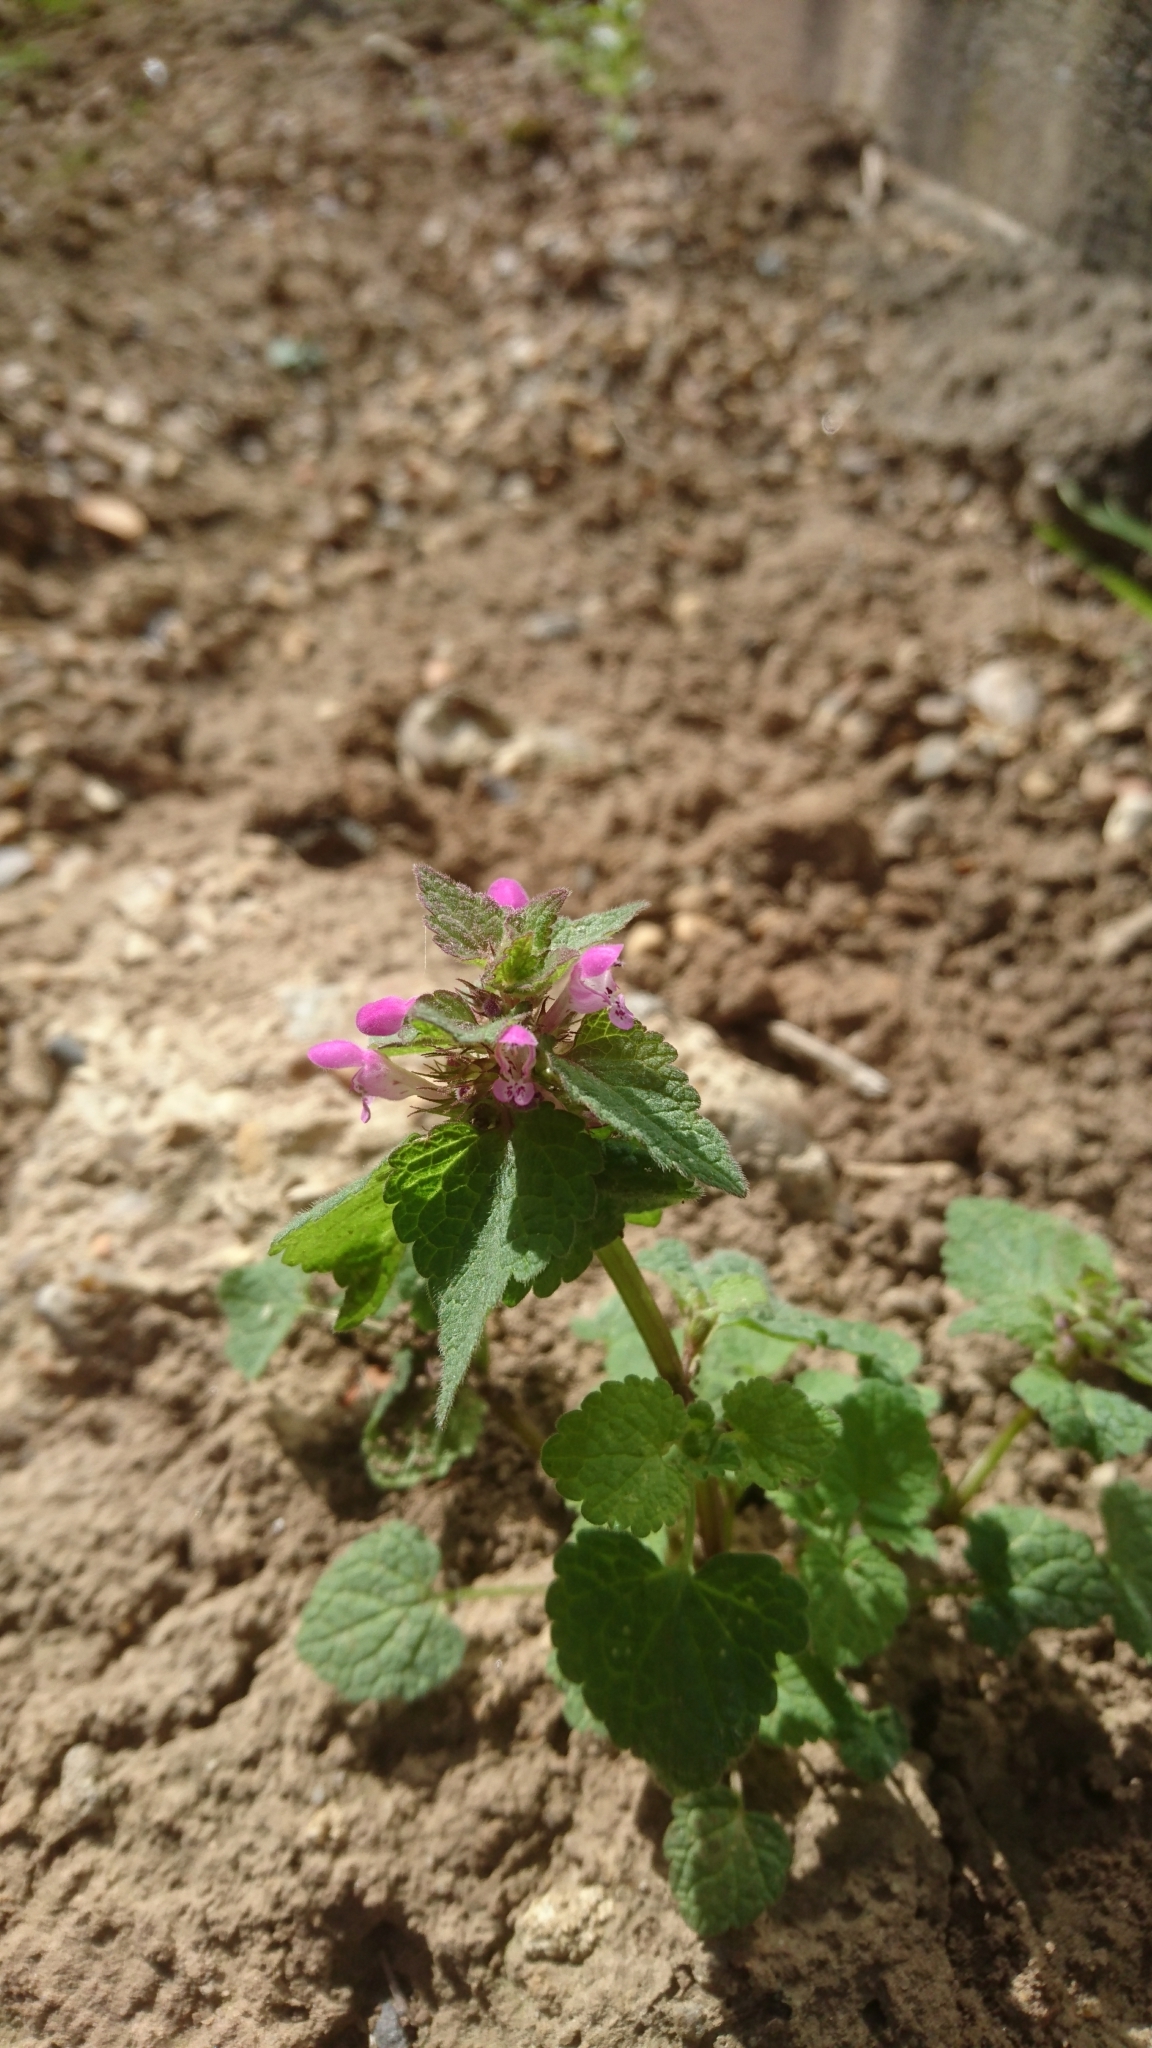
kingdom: Plantae
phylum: Tracheophyta
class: Magnoliopsida
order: Lamiales
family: Lamiaceae
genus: Lamium
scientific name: Lamium purpureum
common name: Red dead-nettle
